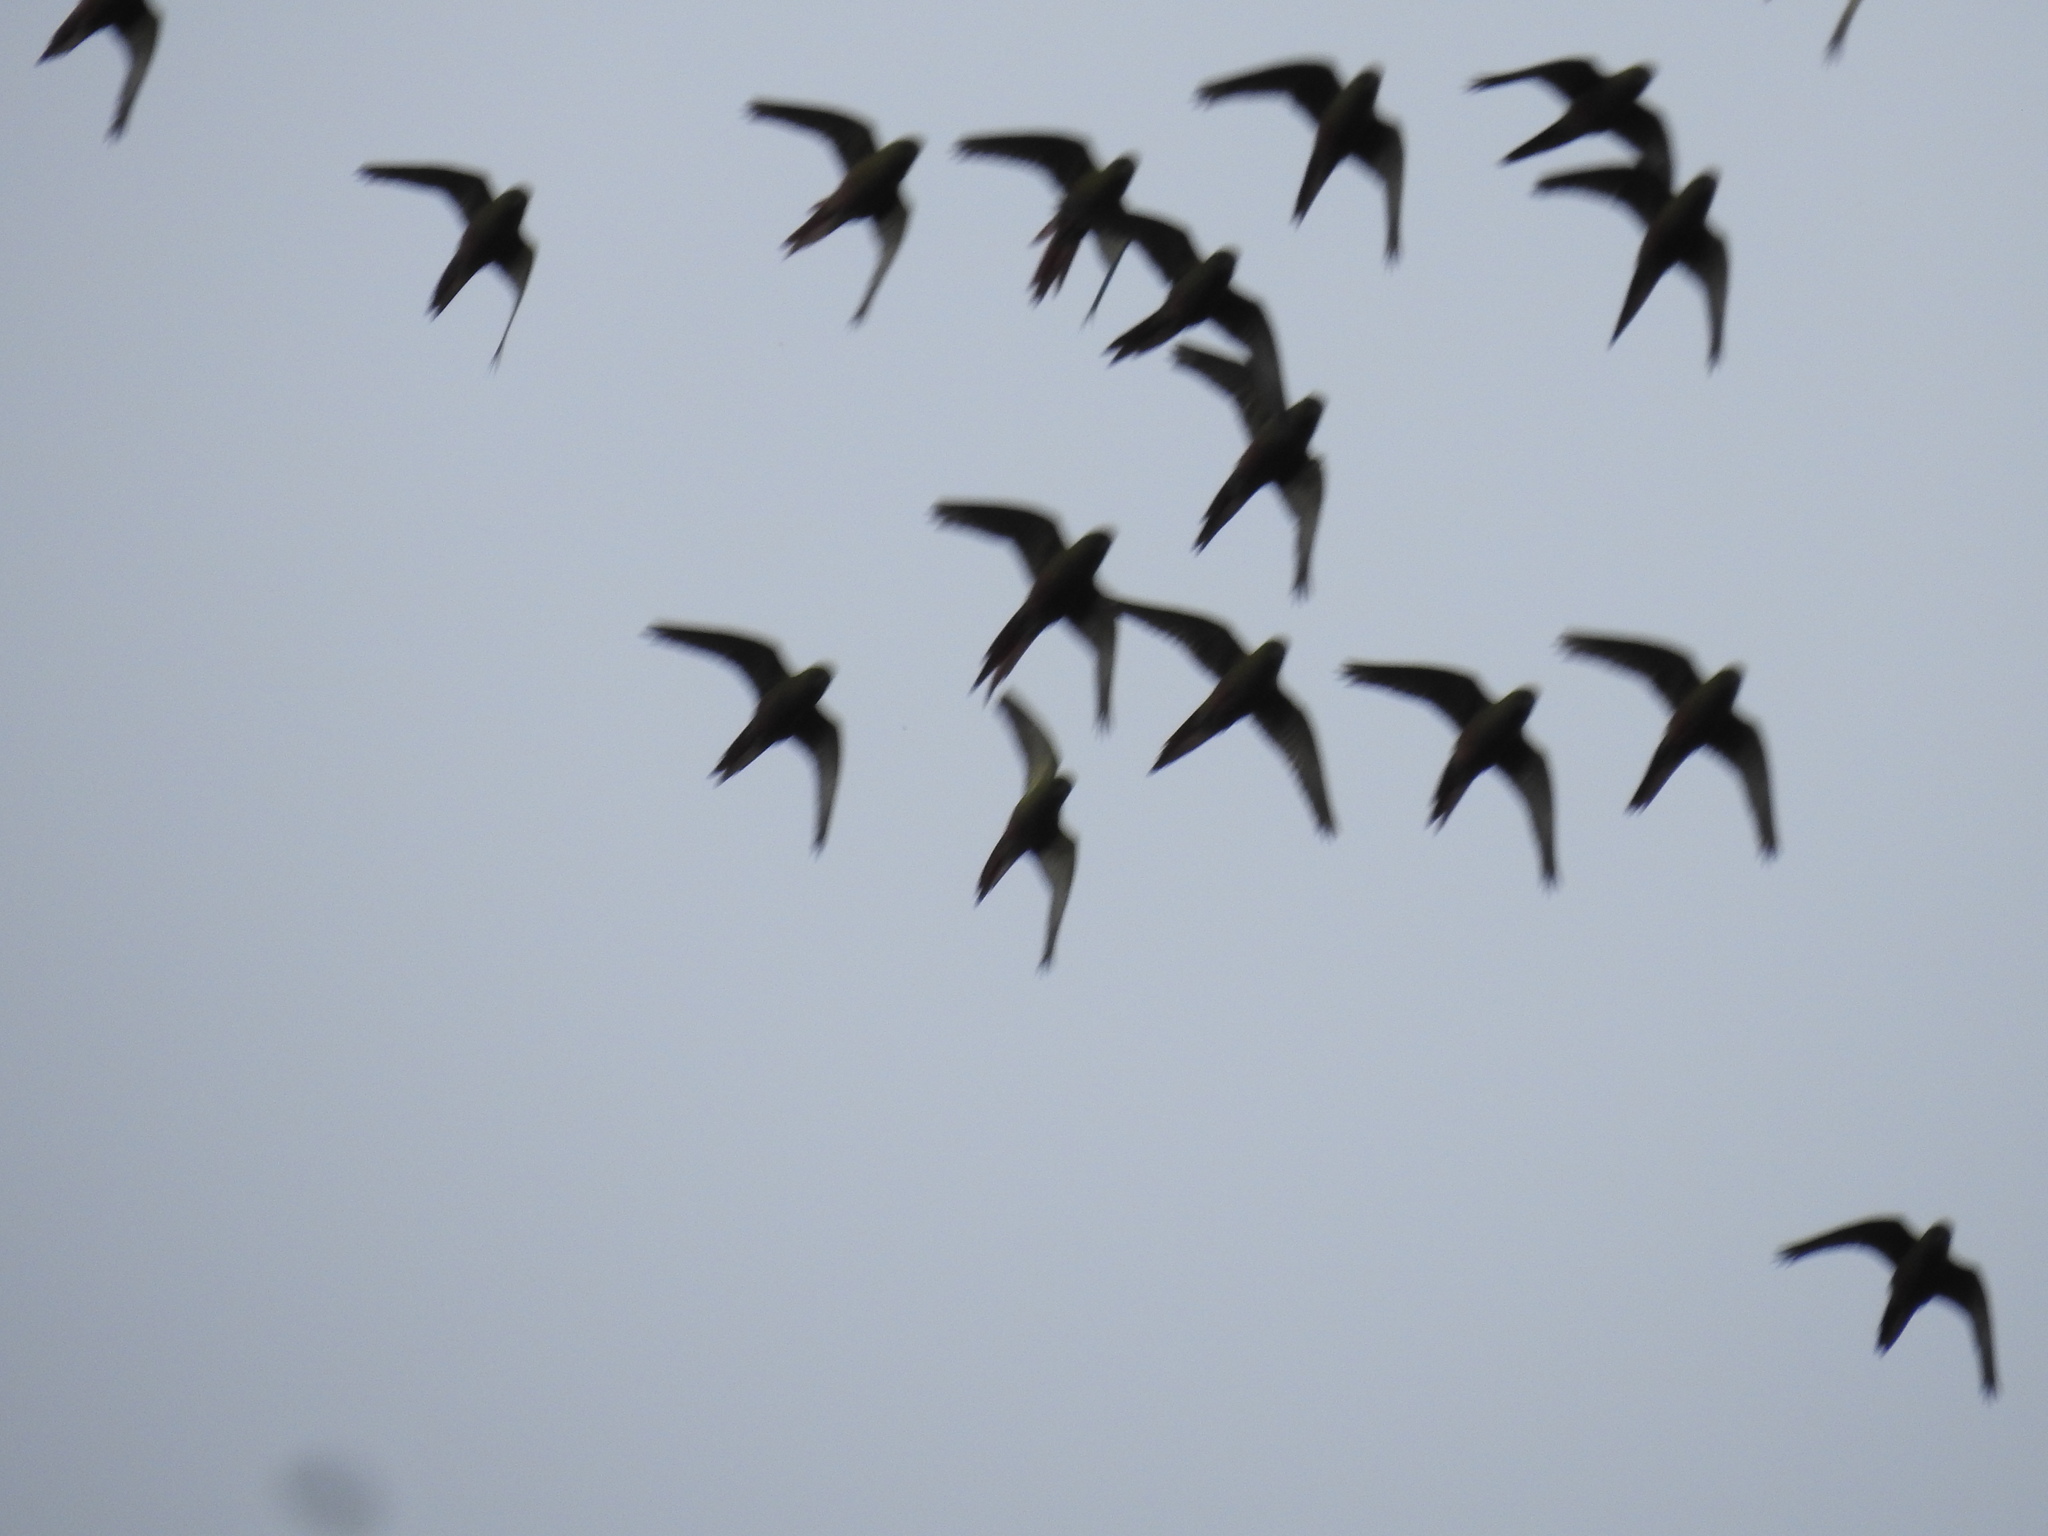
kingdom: Animalia
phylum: Chordata
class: Aves
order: Psittaciformes
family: Psittacidae
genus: Enicognathus
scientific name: Enicognathus ferrugineus
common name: Austral parakeet
